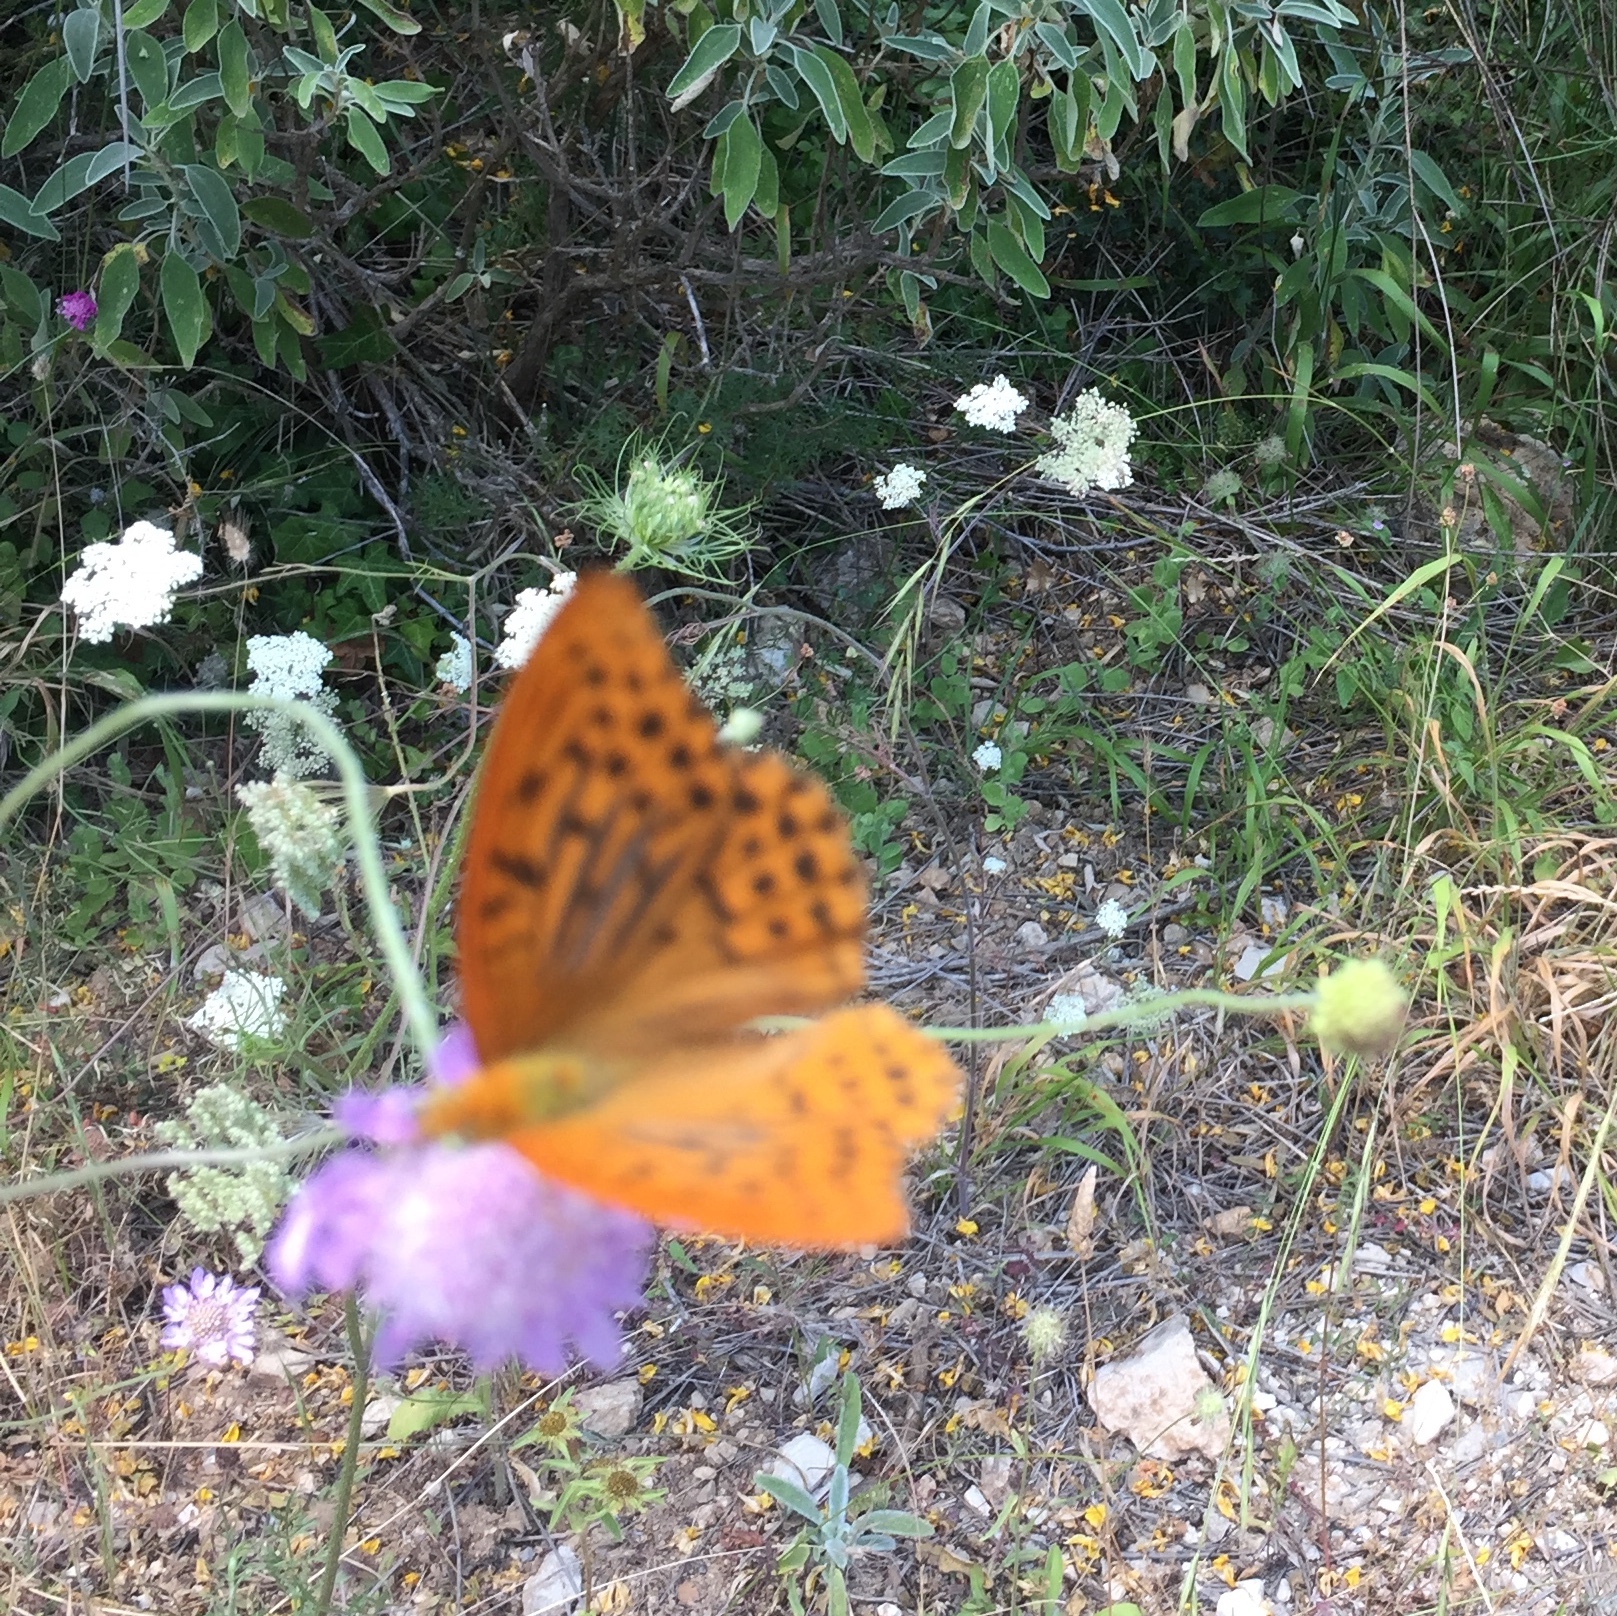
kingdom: Animalia
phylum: Arthropoda
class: Insecta
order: Lepidoptera
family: Nymphalidae
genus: Argynnis
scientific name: Argynnis paphia
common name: Silver-washed fritillary
